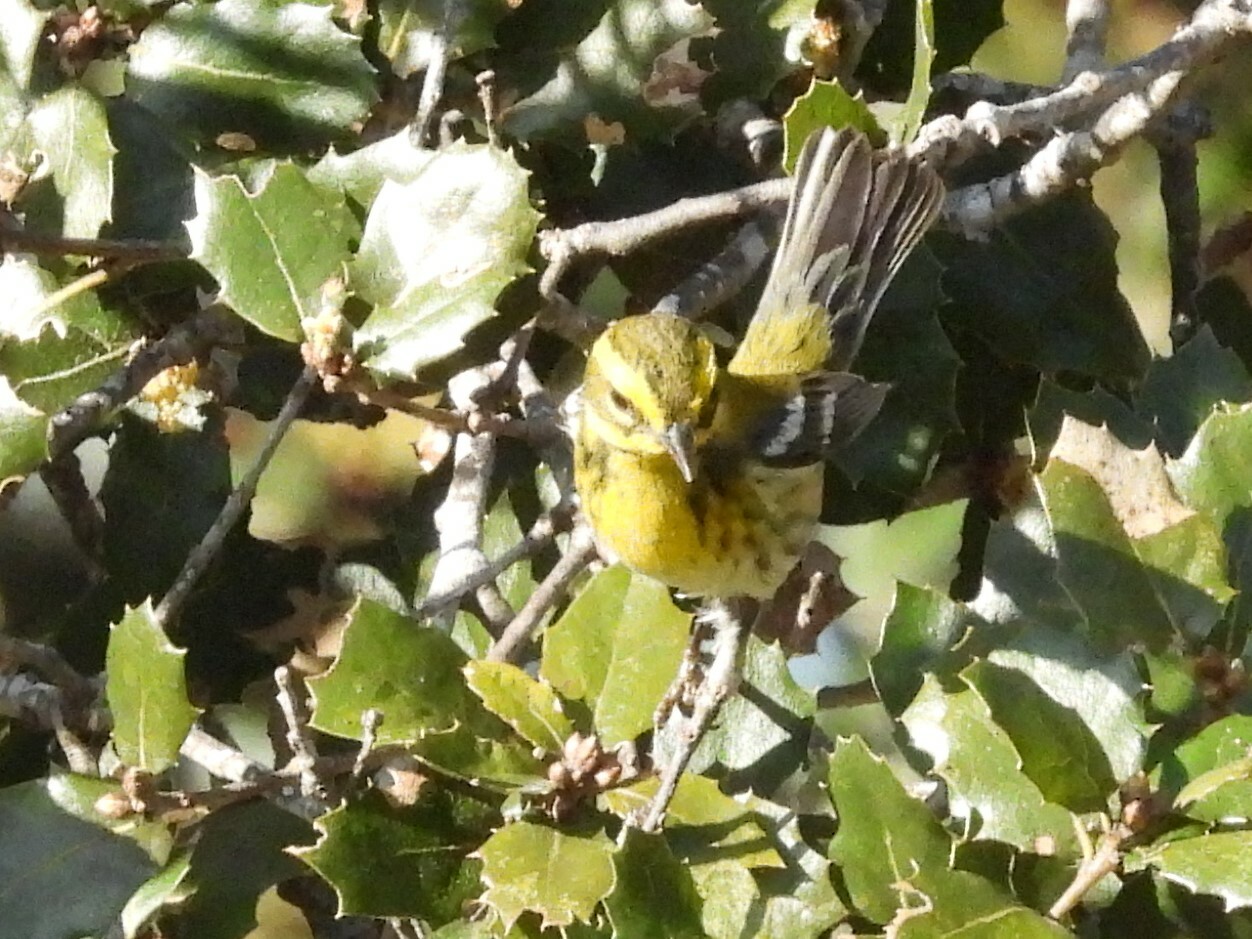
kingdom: Animalia
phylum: Chordata
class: Aves
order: Passeriformes
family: Parulidae
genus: Setophaga
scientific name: Setophaga townsendi
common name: Townsend's warbler
